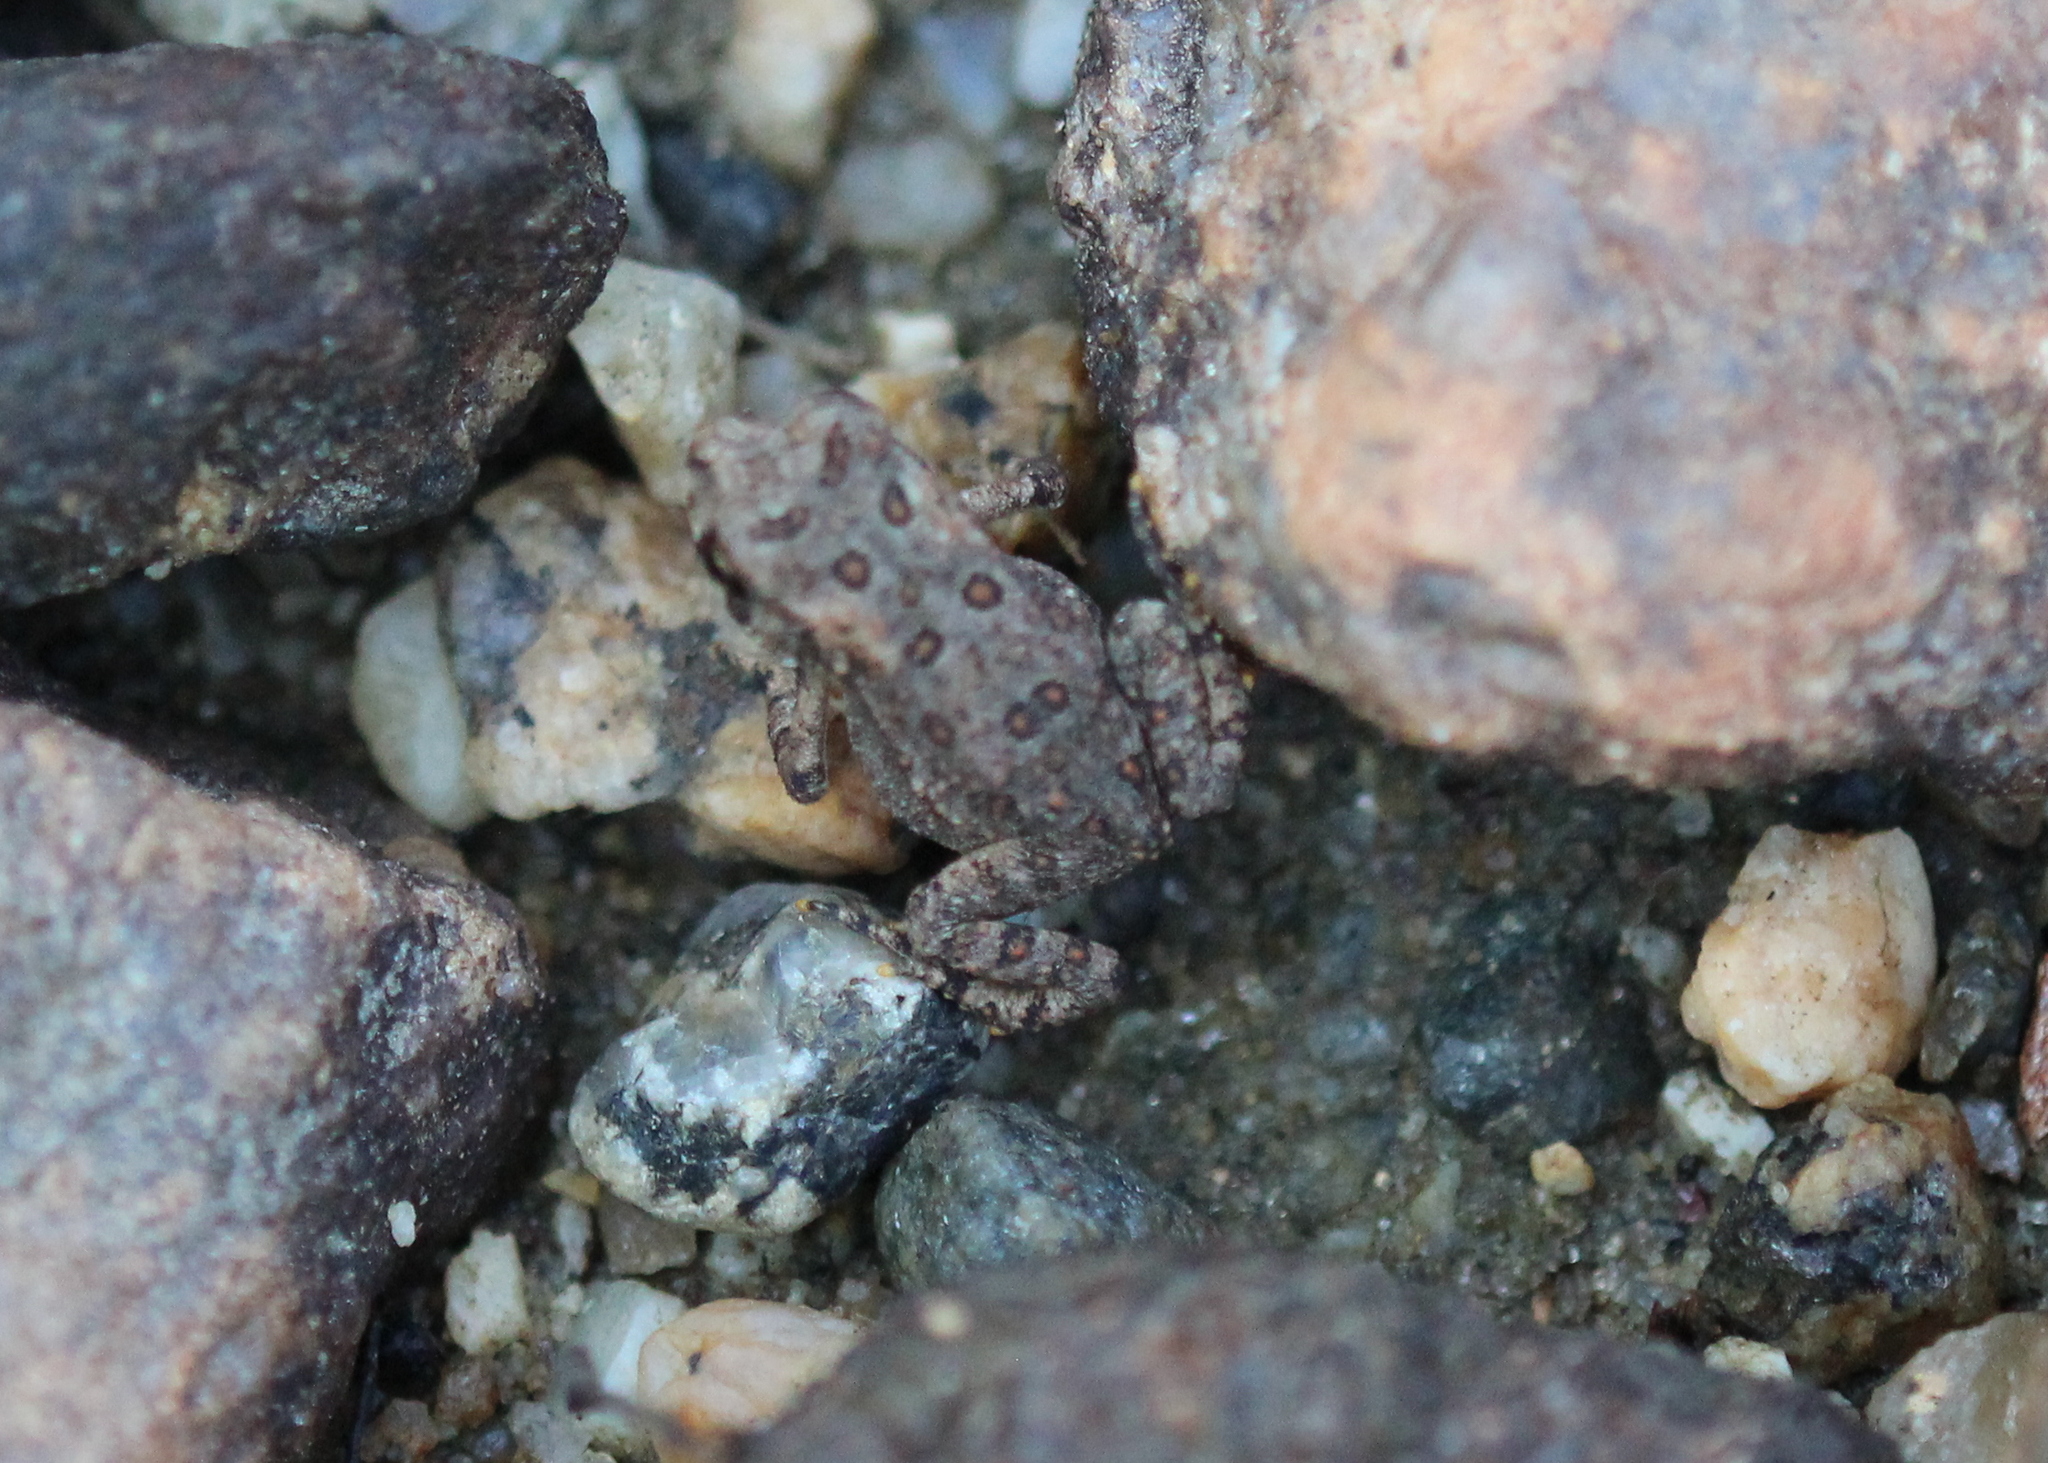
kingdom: Animalia
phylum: Chordata
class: Amphibia
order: Anura
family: Bufonidae
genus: Anaxyrus
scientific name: Anaxyrus americanus
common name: American toad
